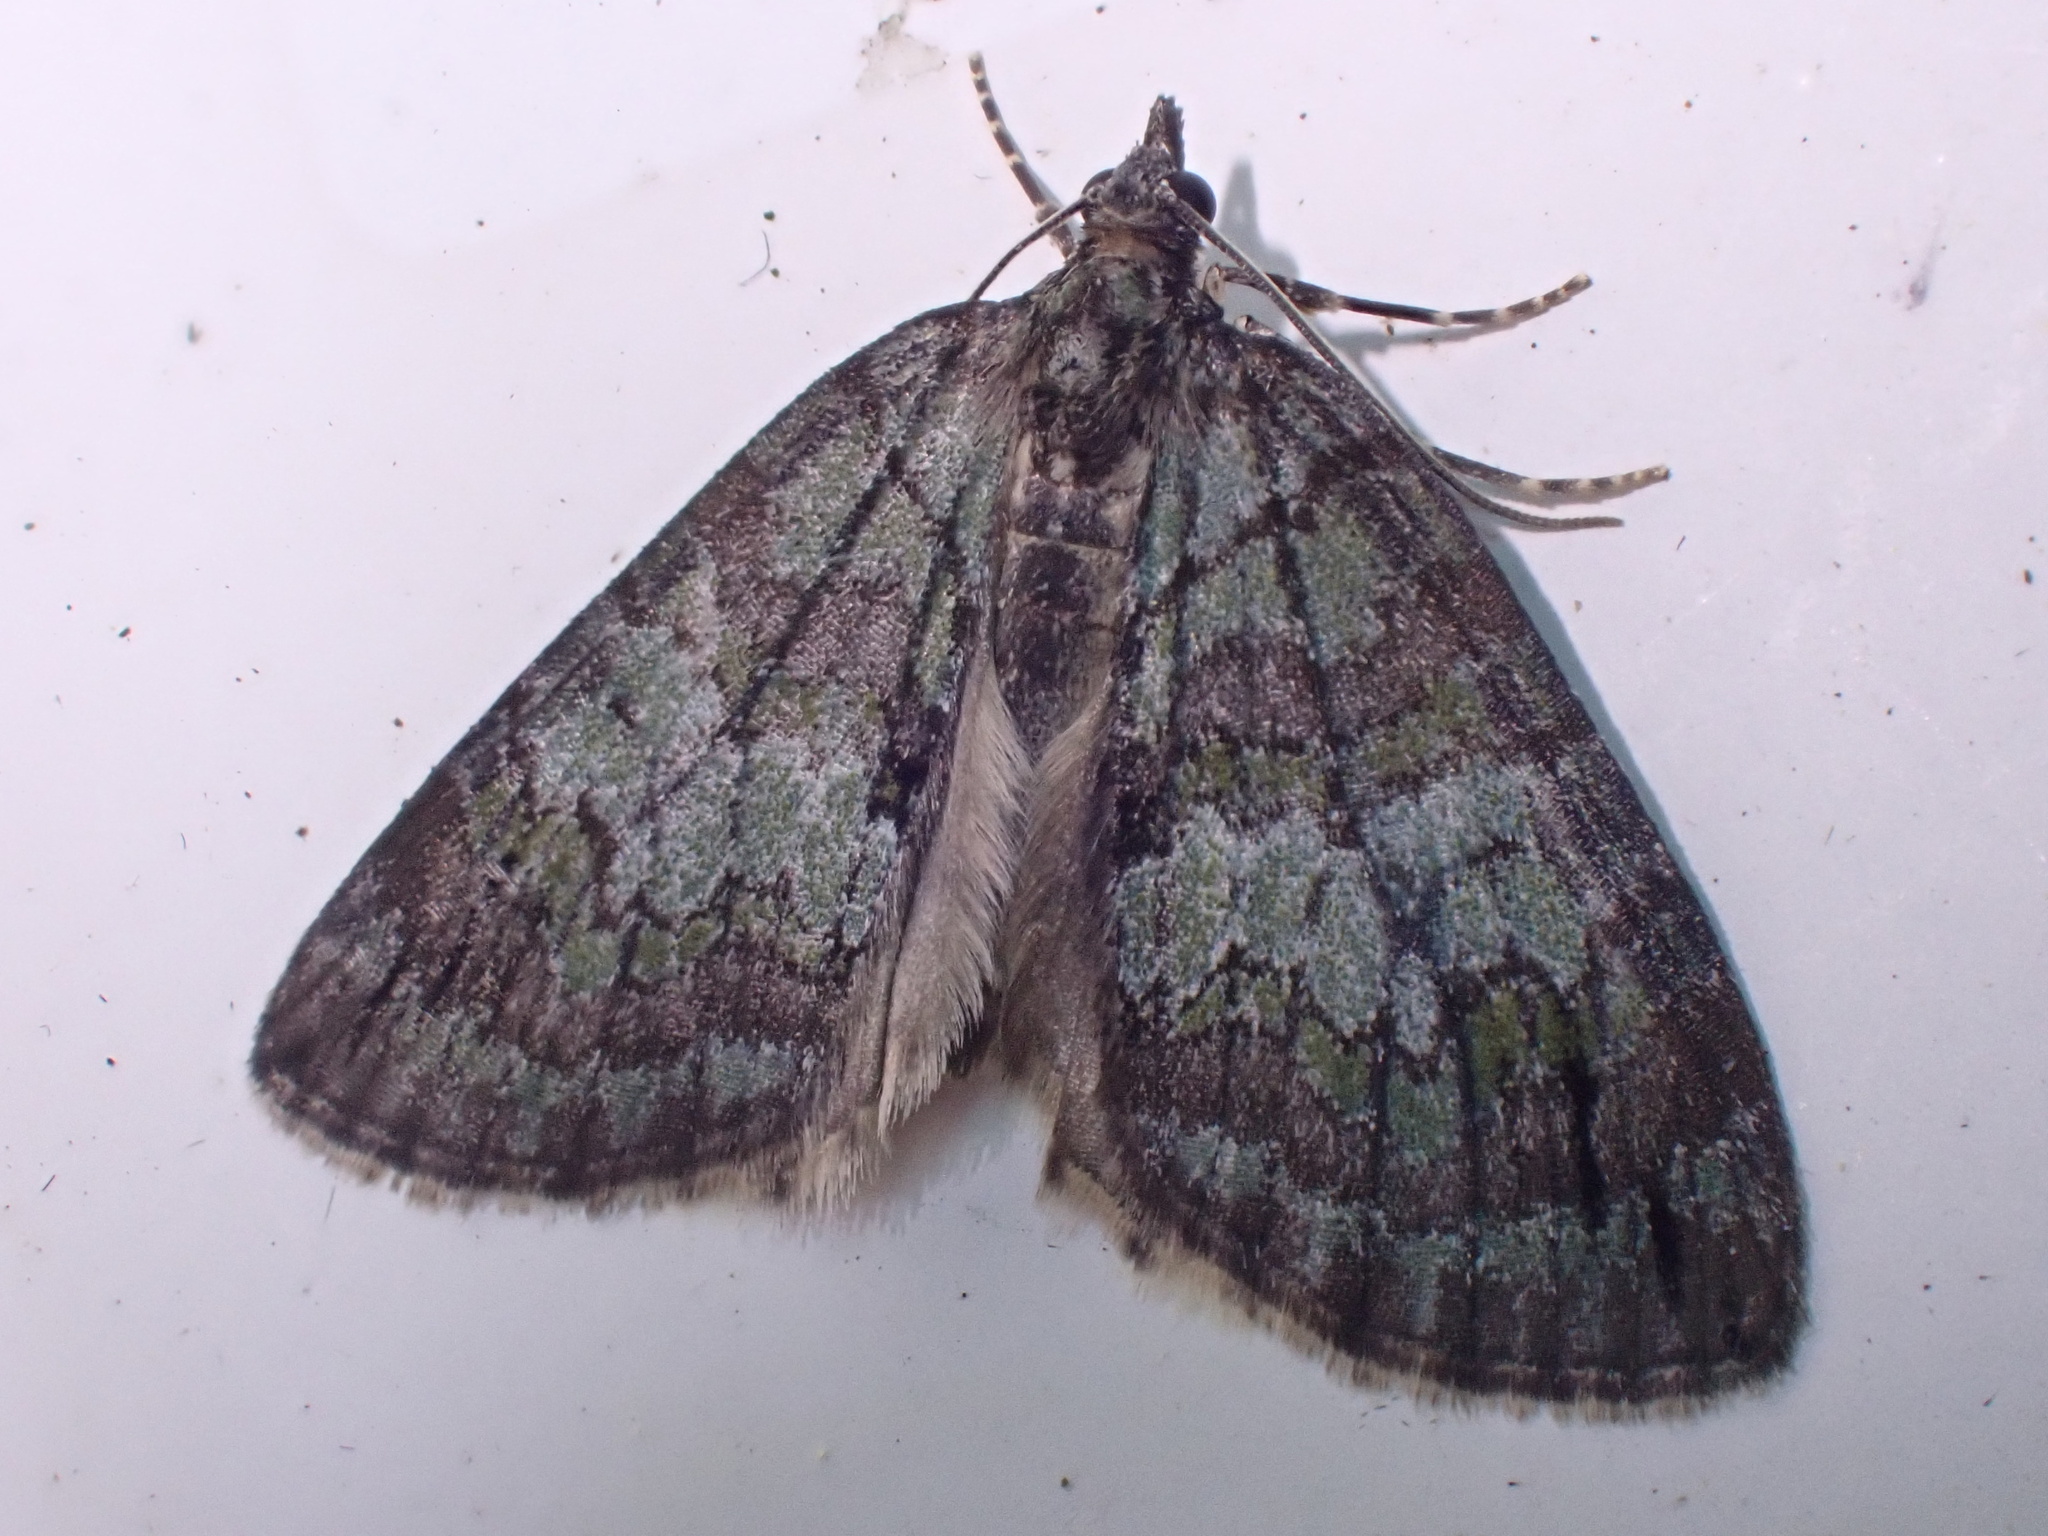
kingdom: Animalia
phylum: Arthropoda
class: Insecta
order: Lepidoptera
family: Geometridae
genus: Hydriomena
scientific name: Hydriomena impluviata
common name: May highflyer
